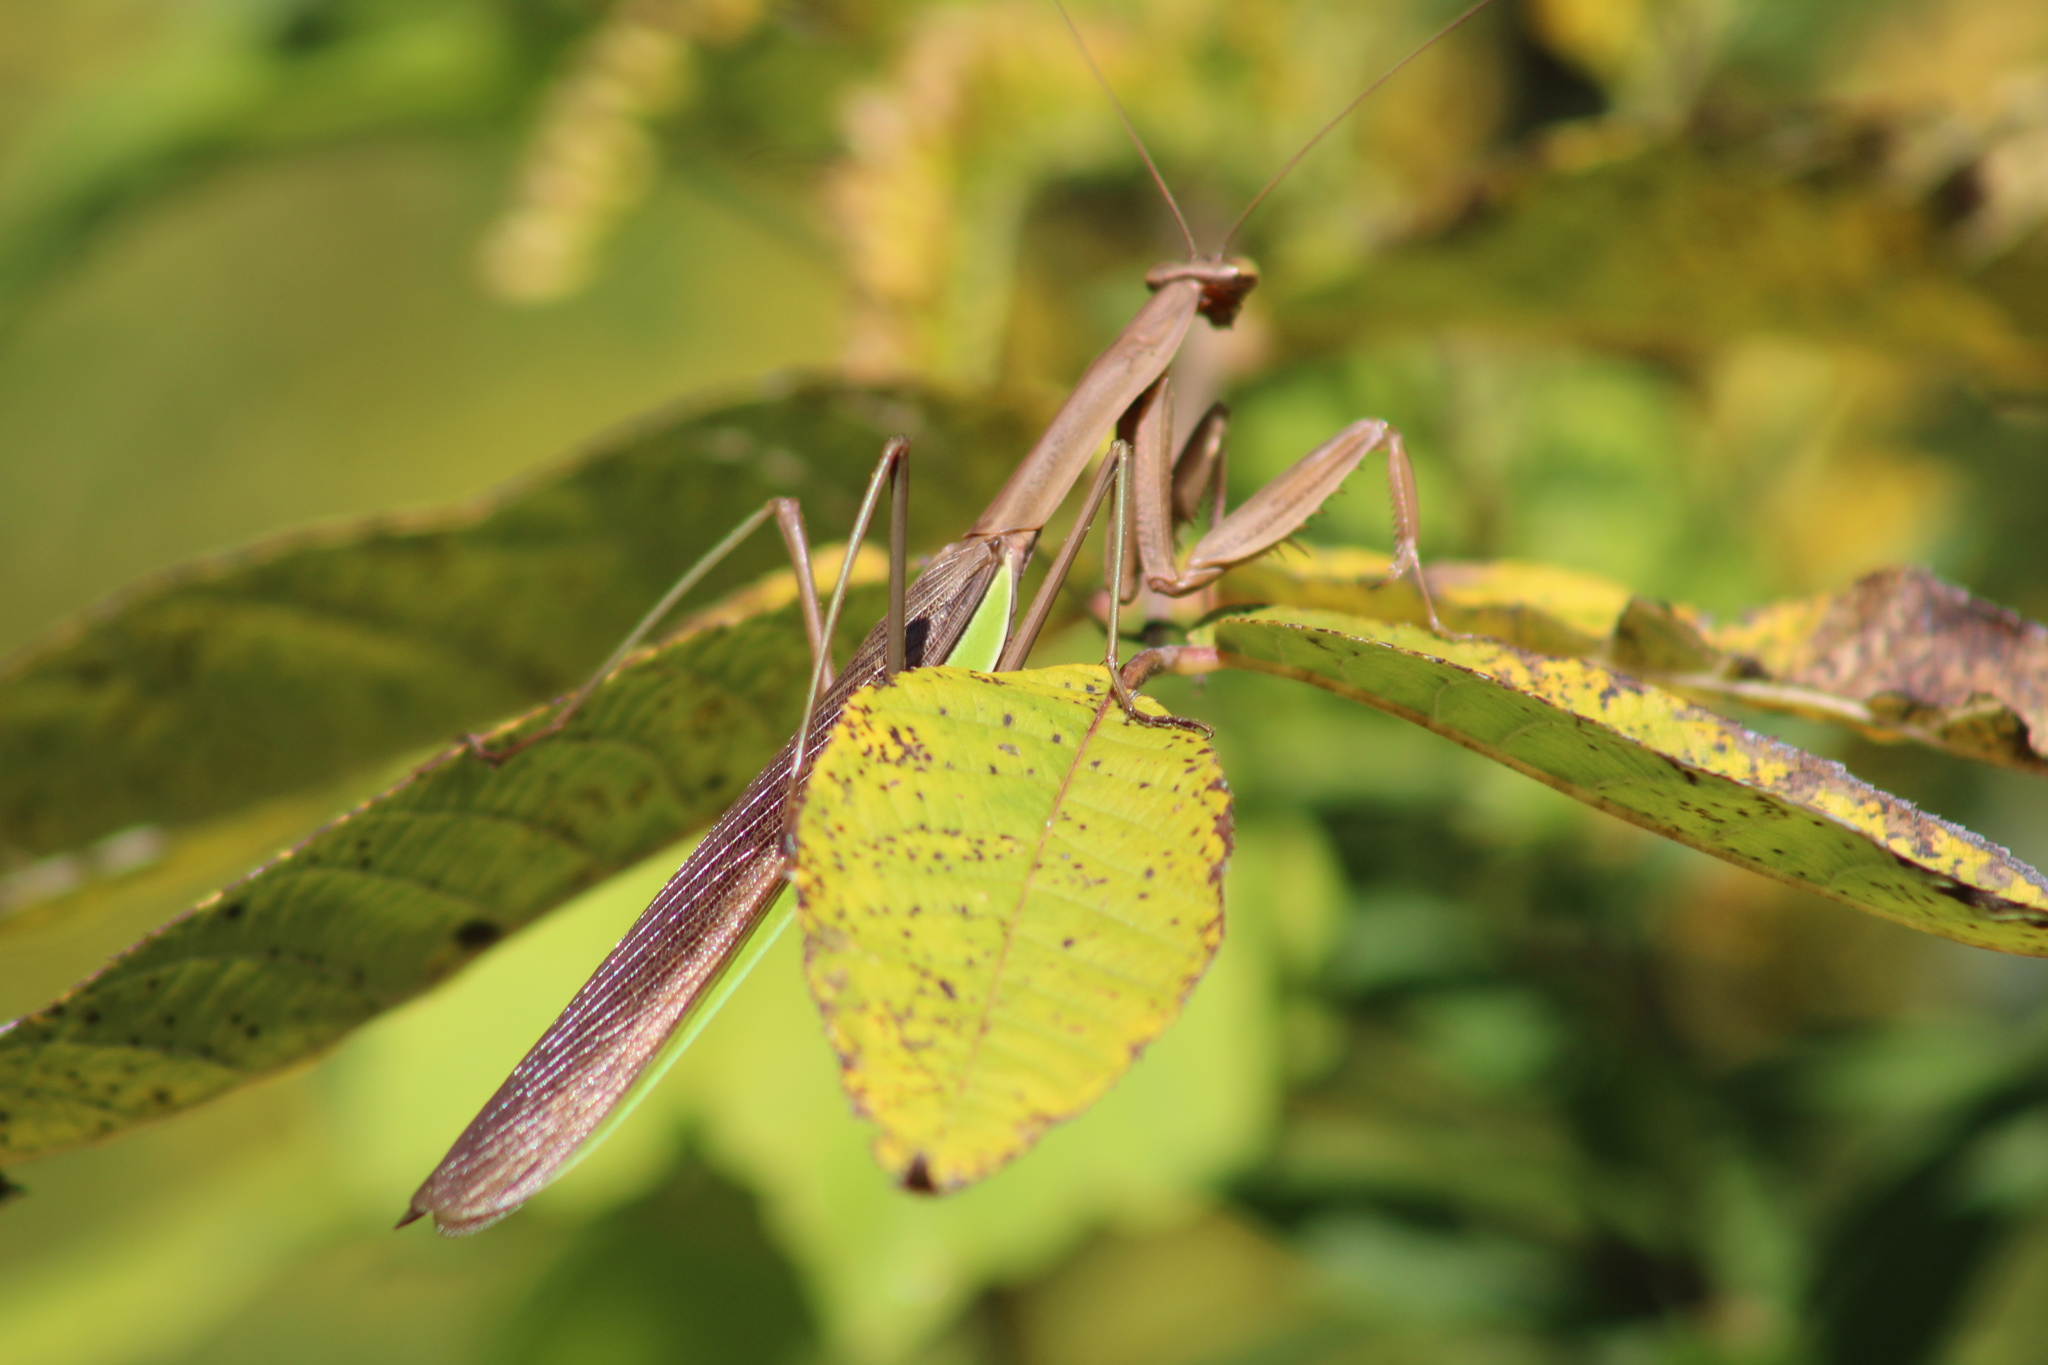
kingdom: Animalia
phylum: Arthropoda
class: Insecta
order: Mantodea
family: Mantidae
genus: Tenodera
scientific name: Tenodera sinensis
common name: Chinese mantis
